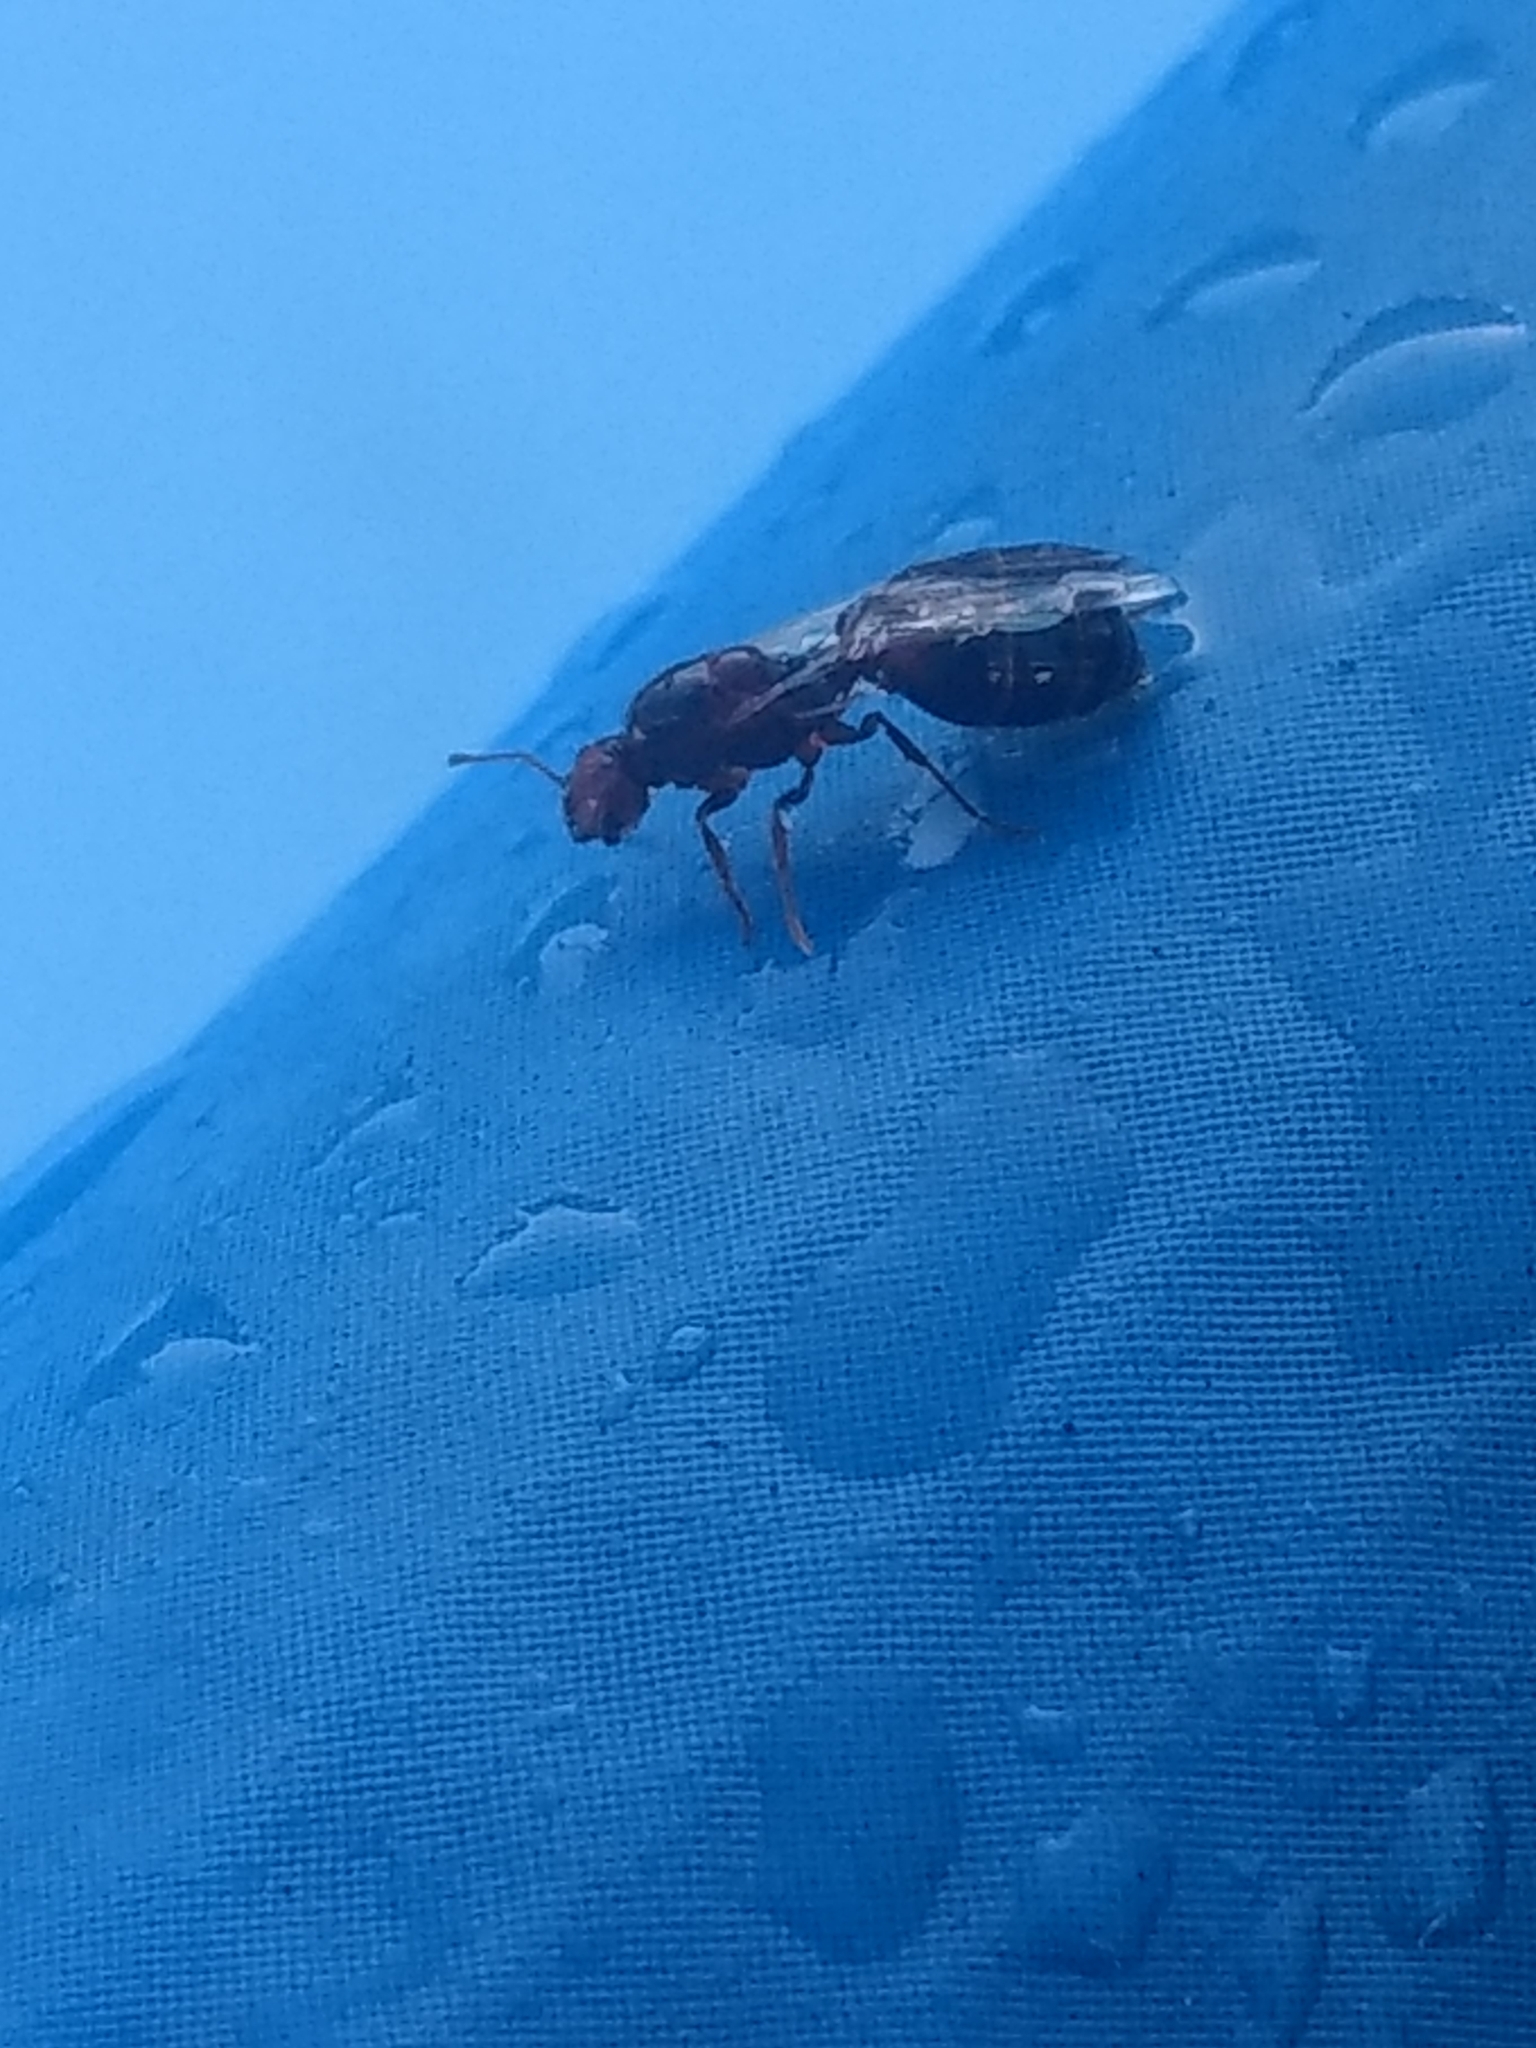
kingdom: Animalia
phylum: Arthropoda
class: Insecta
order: Hymenoptera
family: Formicidae
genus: Solenopsis
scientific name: Solenopsis invicta
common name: Red imported fire ant
